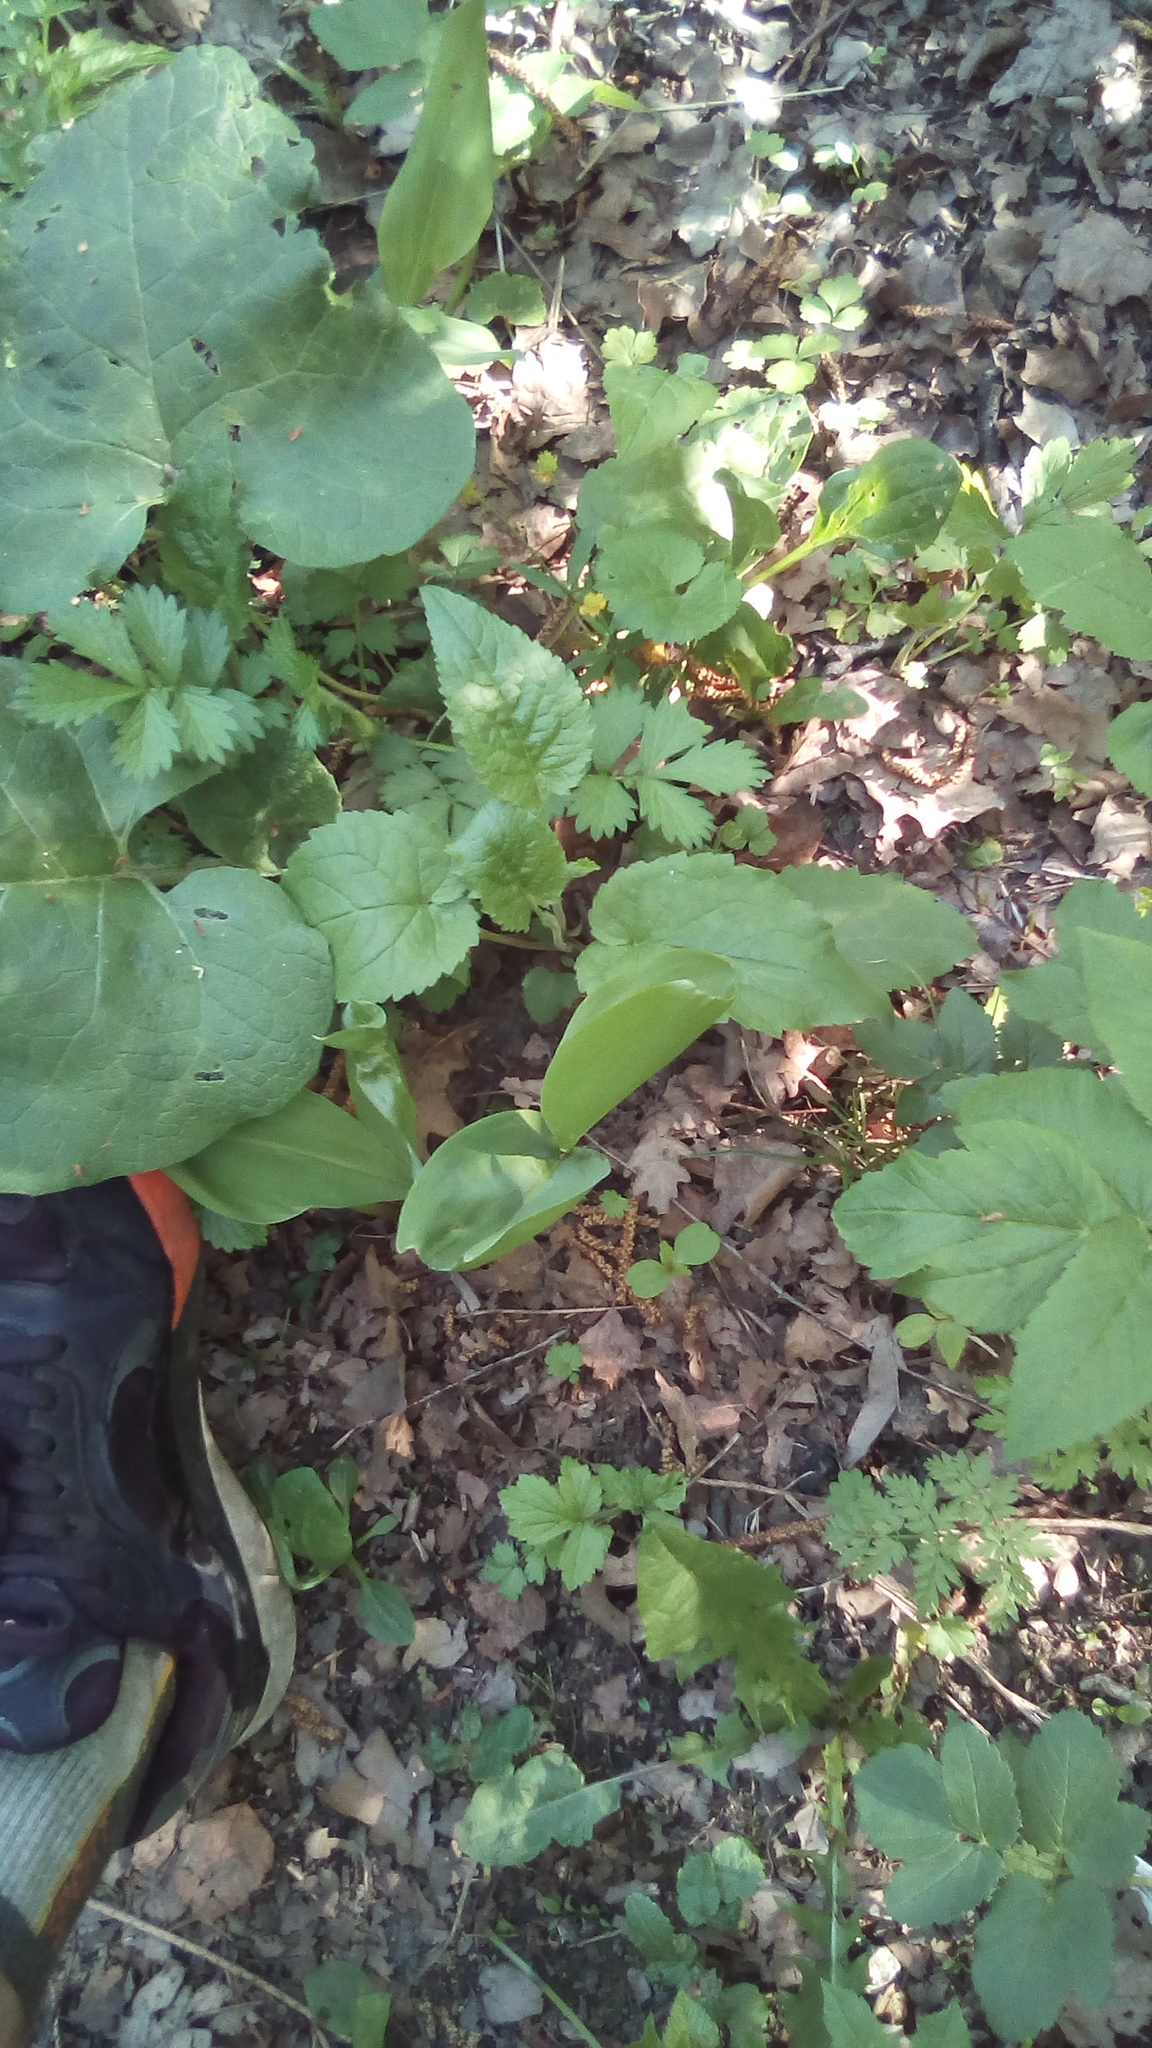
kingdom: Plantae
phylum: Tracheophyta
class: Magnoliopsida
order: Asterales
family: Campanulaceae
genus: Campanula
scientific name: Campanula rapunculoides
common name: Creeping bellflower
